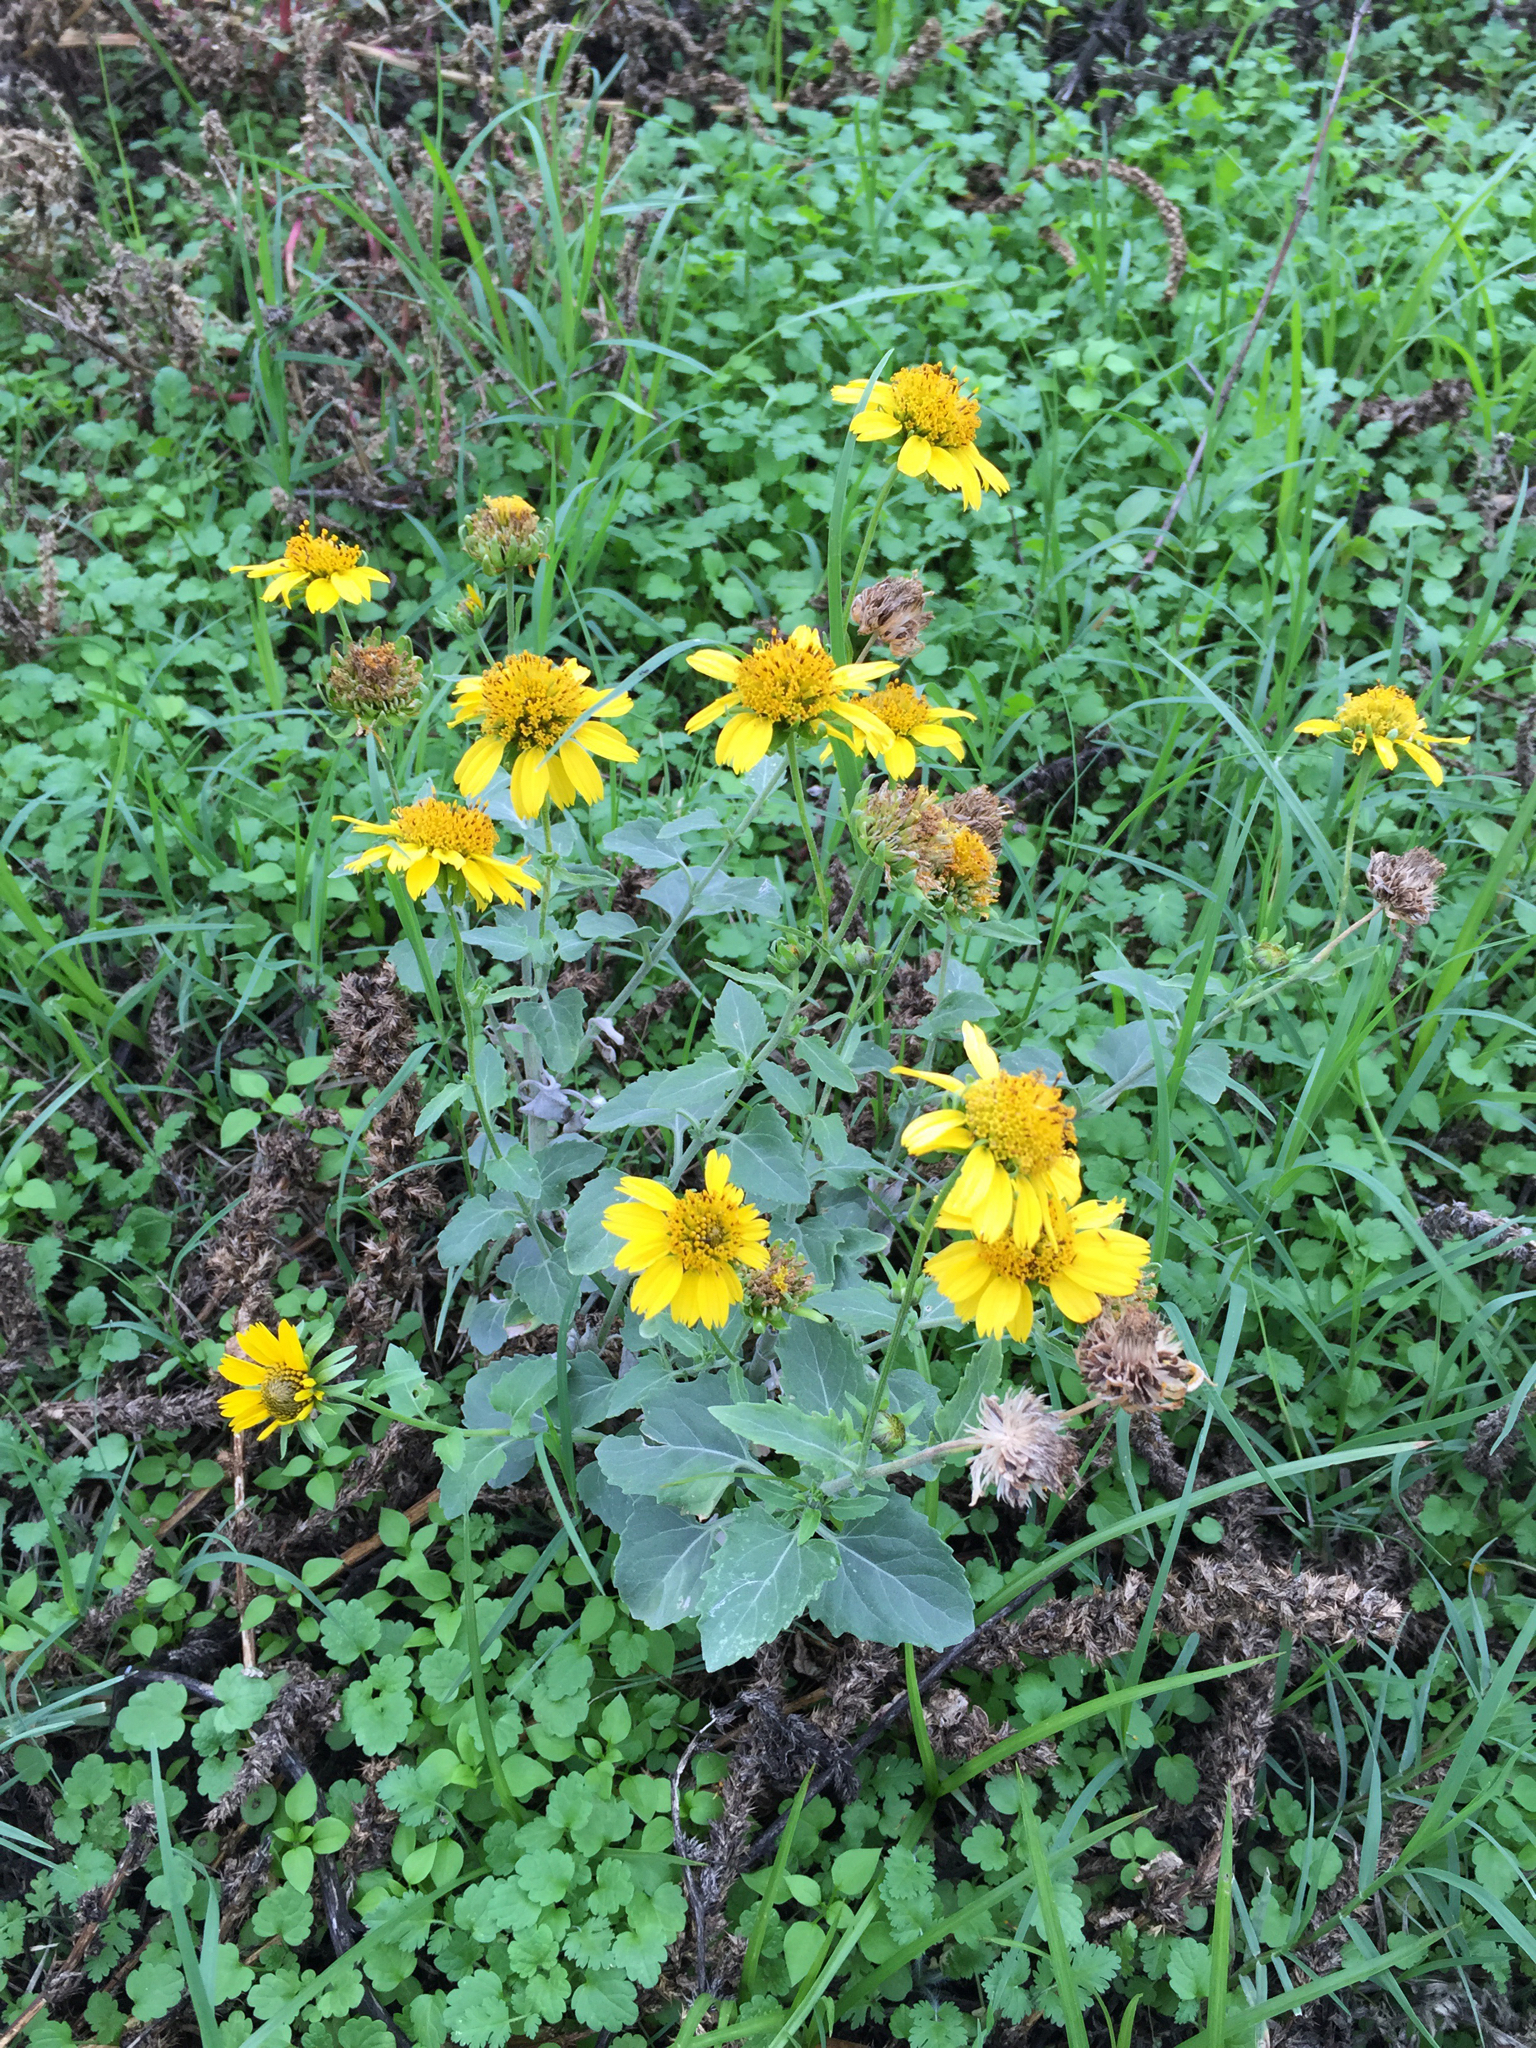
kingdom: Plantae
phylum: Tracheophyta
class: Magnoliopsida
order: Asterales
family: Asteraceae
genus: Verbesina
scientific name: Verbesina encelioides
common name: Golden crownbeard
